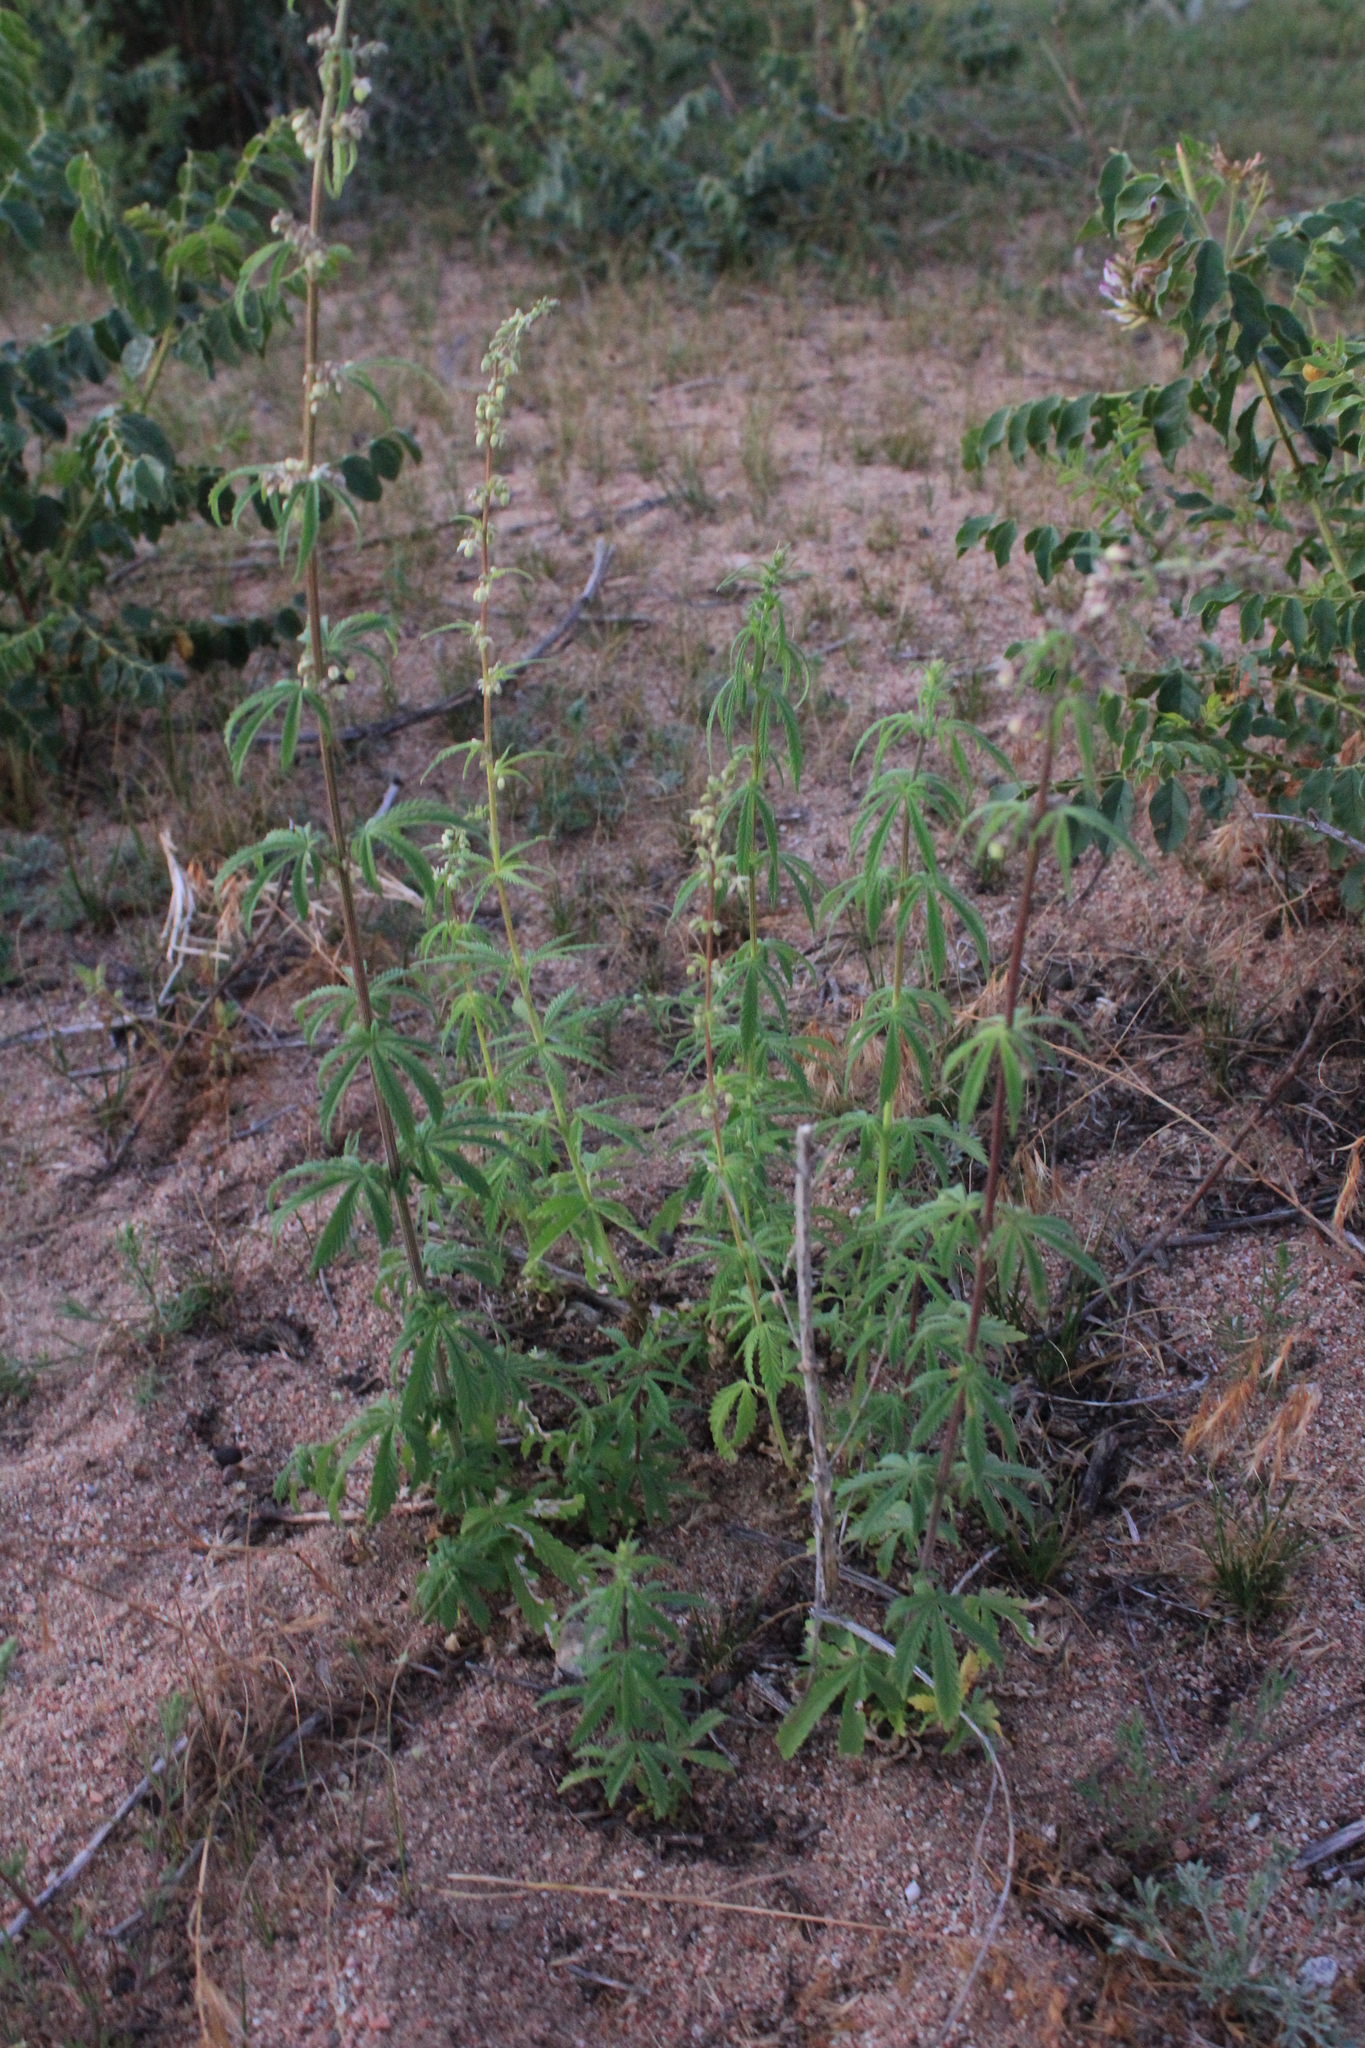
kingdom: Plantae
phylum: Tracheophyta
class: Magnoliopsida
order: Rosales
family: Cannabaceae
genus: Cannabis
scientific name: Cannabis sativa
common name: Hemp
